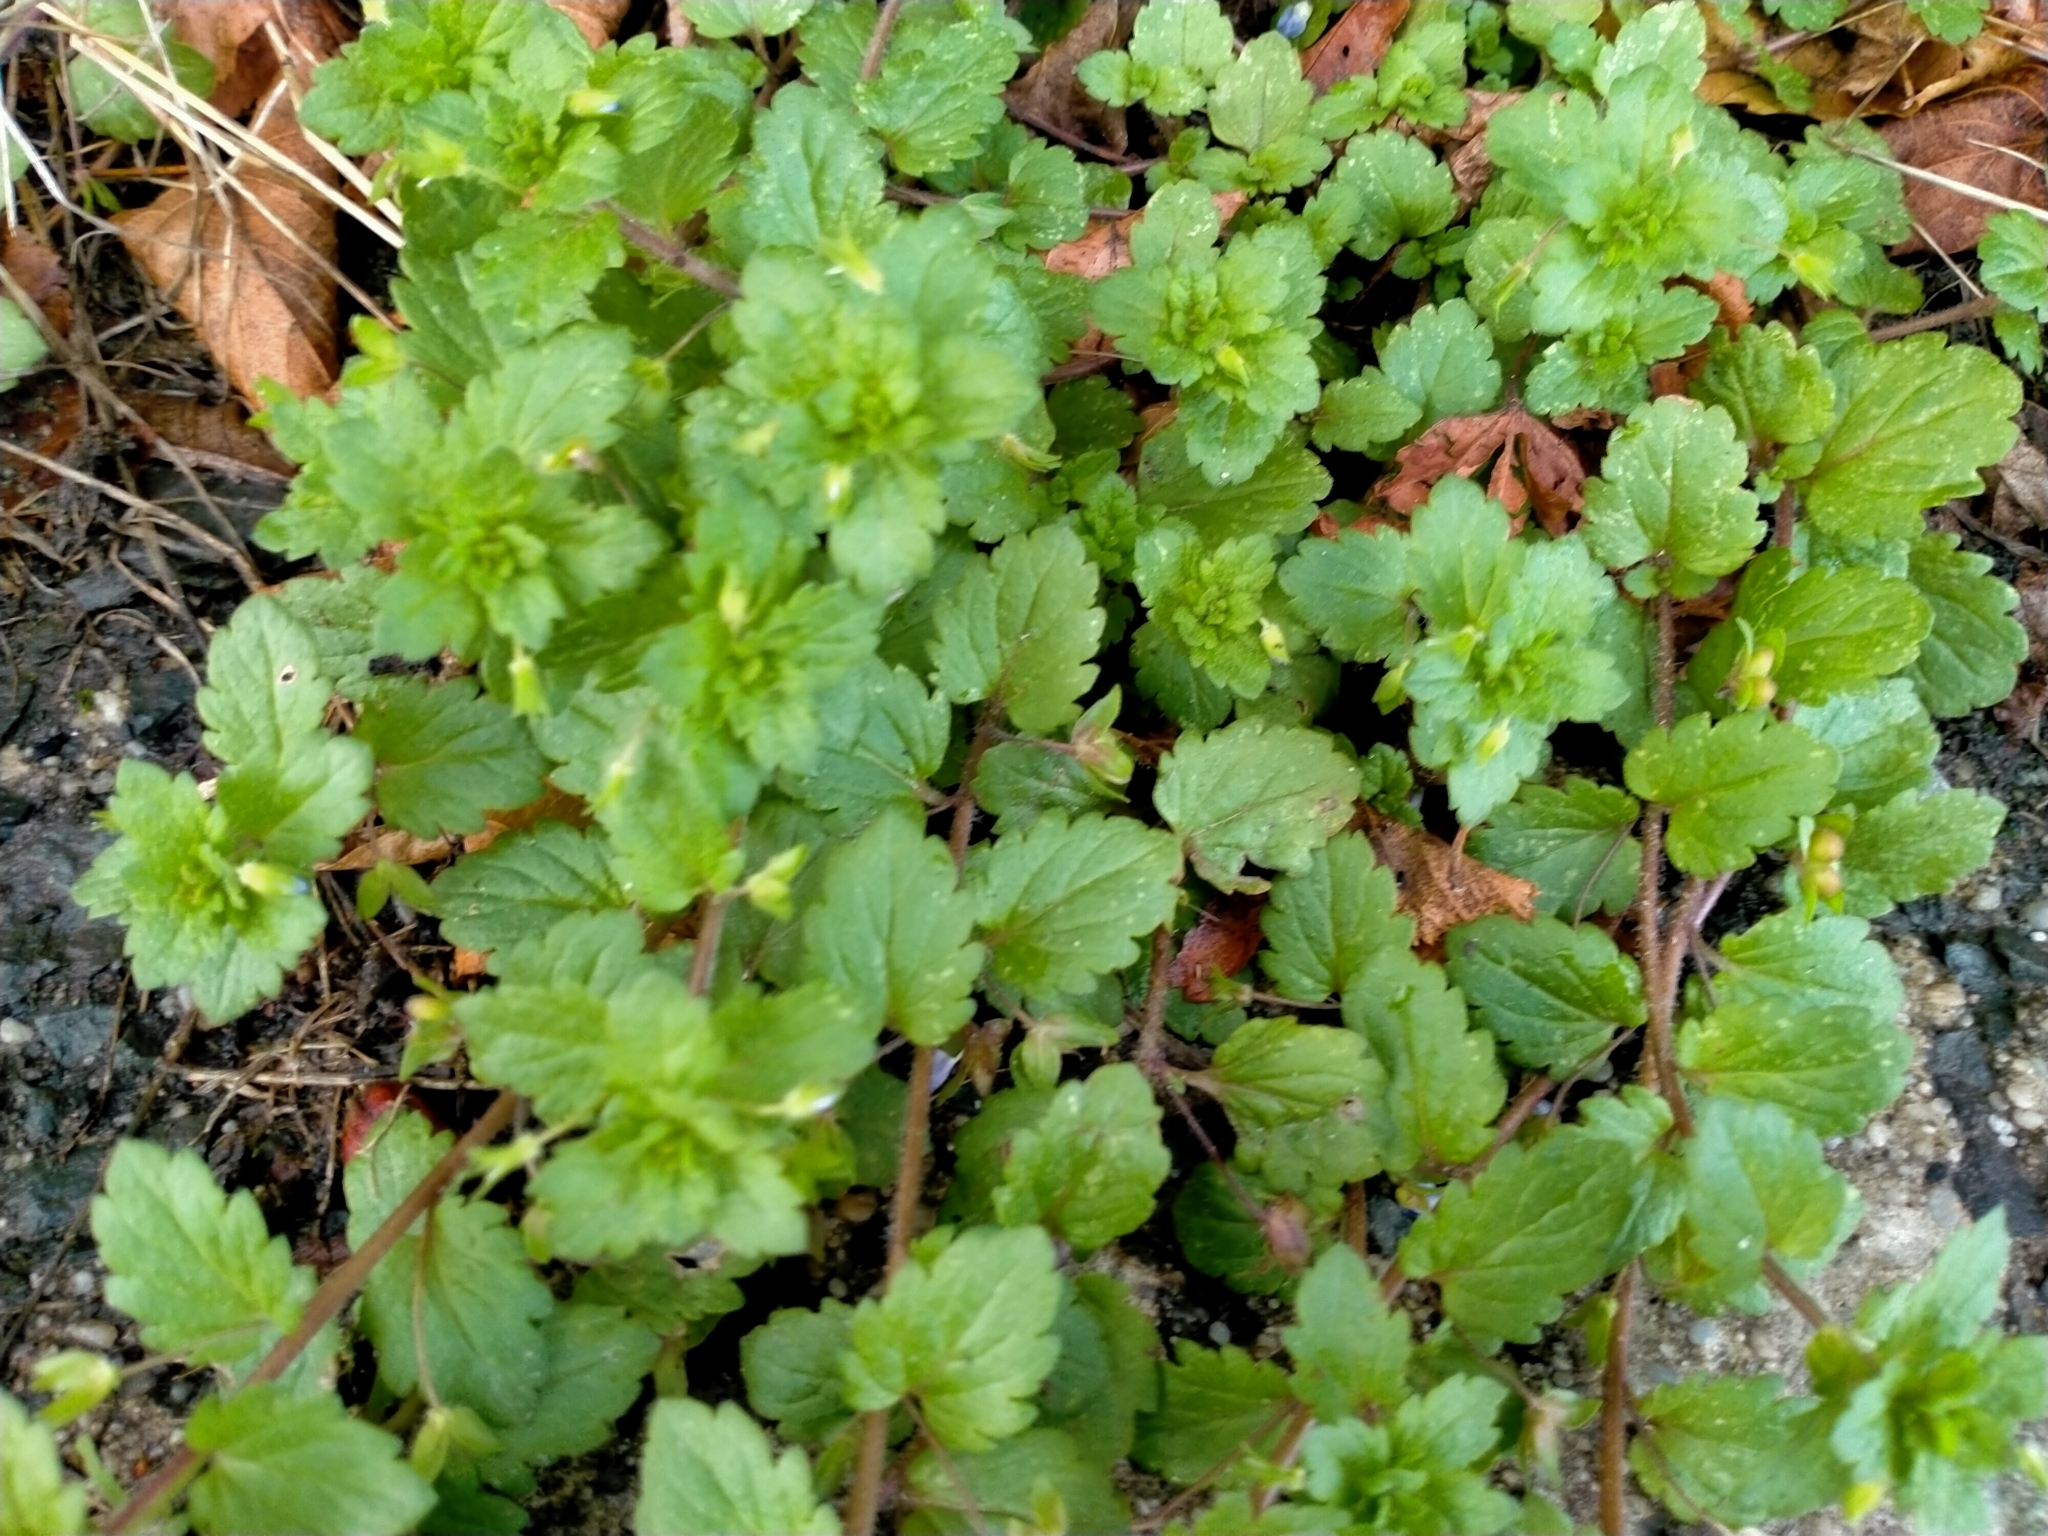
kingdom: Plantae
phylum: Tracheophyta
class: Magnoliopsida
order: Lamiales
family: Plantaginaceae
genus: Veronica
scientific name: Veronica persica
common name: Common field-speedwell
